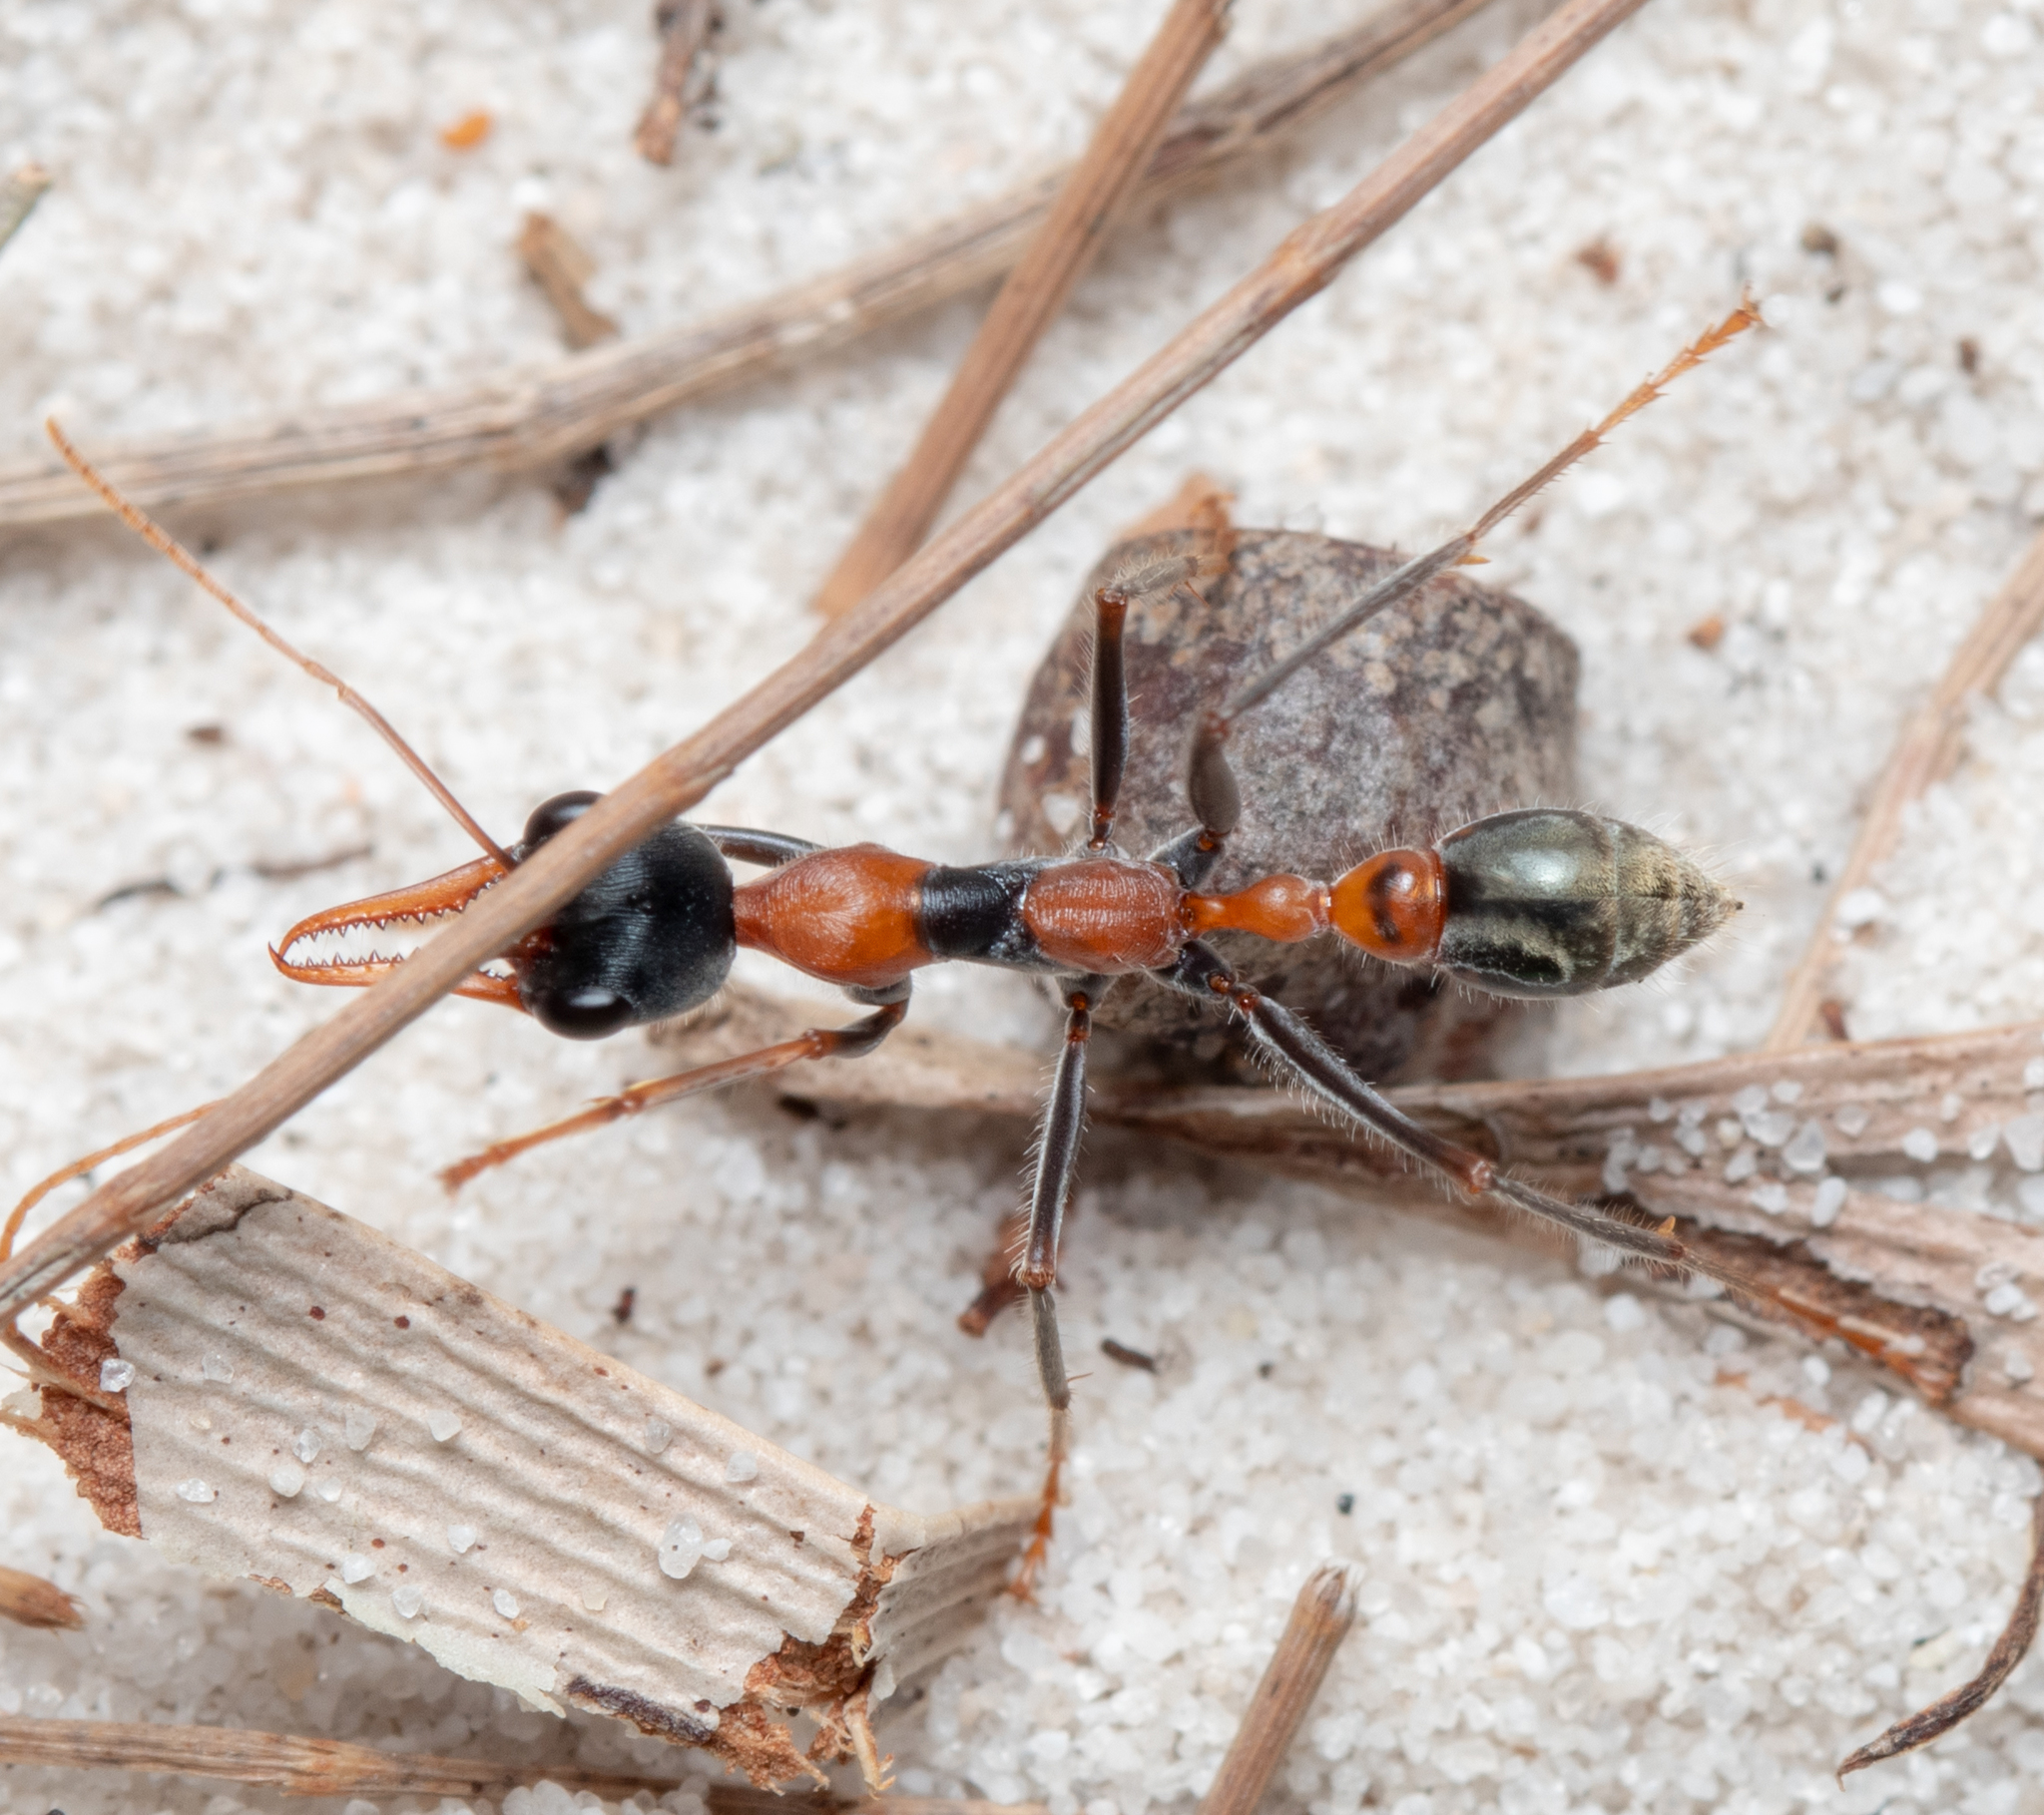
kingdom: Animalia
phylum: Arthropoda
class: Insecta
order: Hymenoptera
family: Formicidae
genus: Myrmecia
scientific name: Myrmecia nigrocincta
